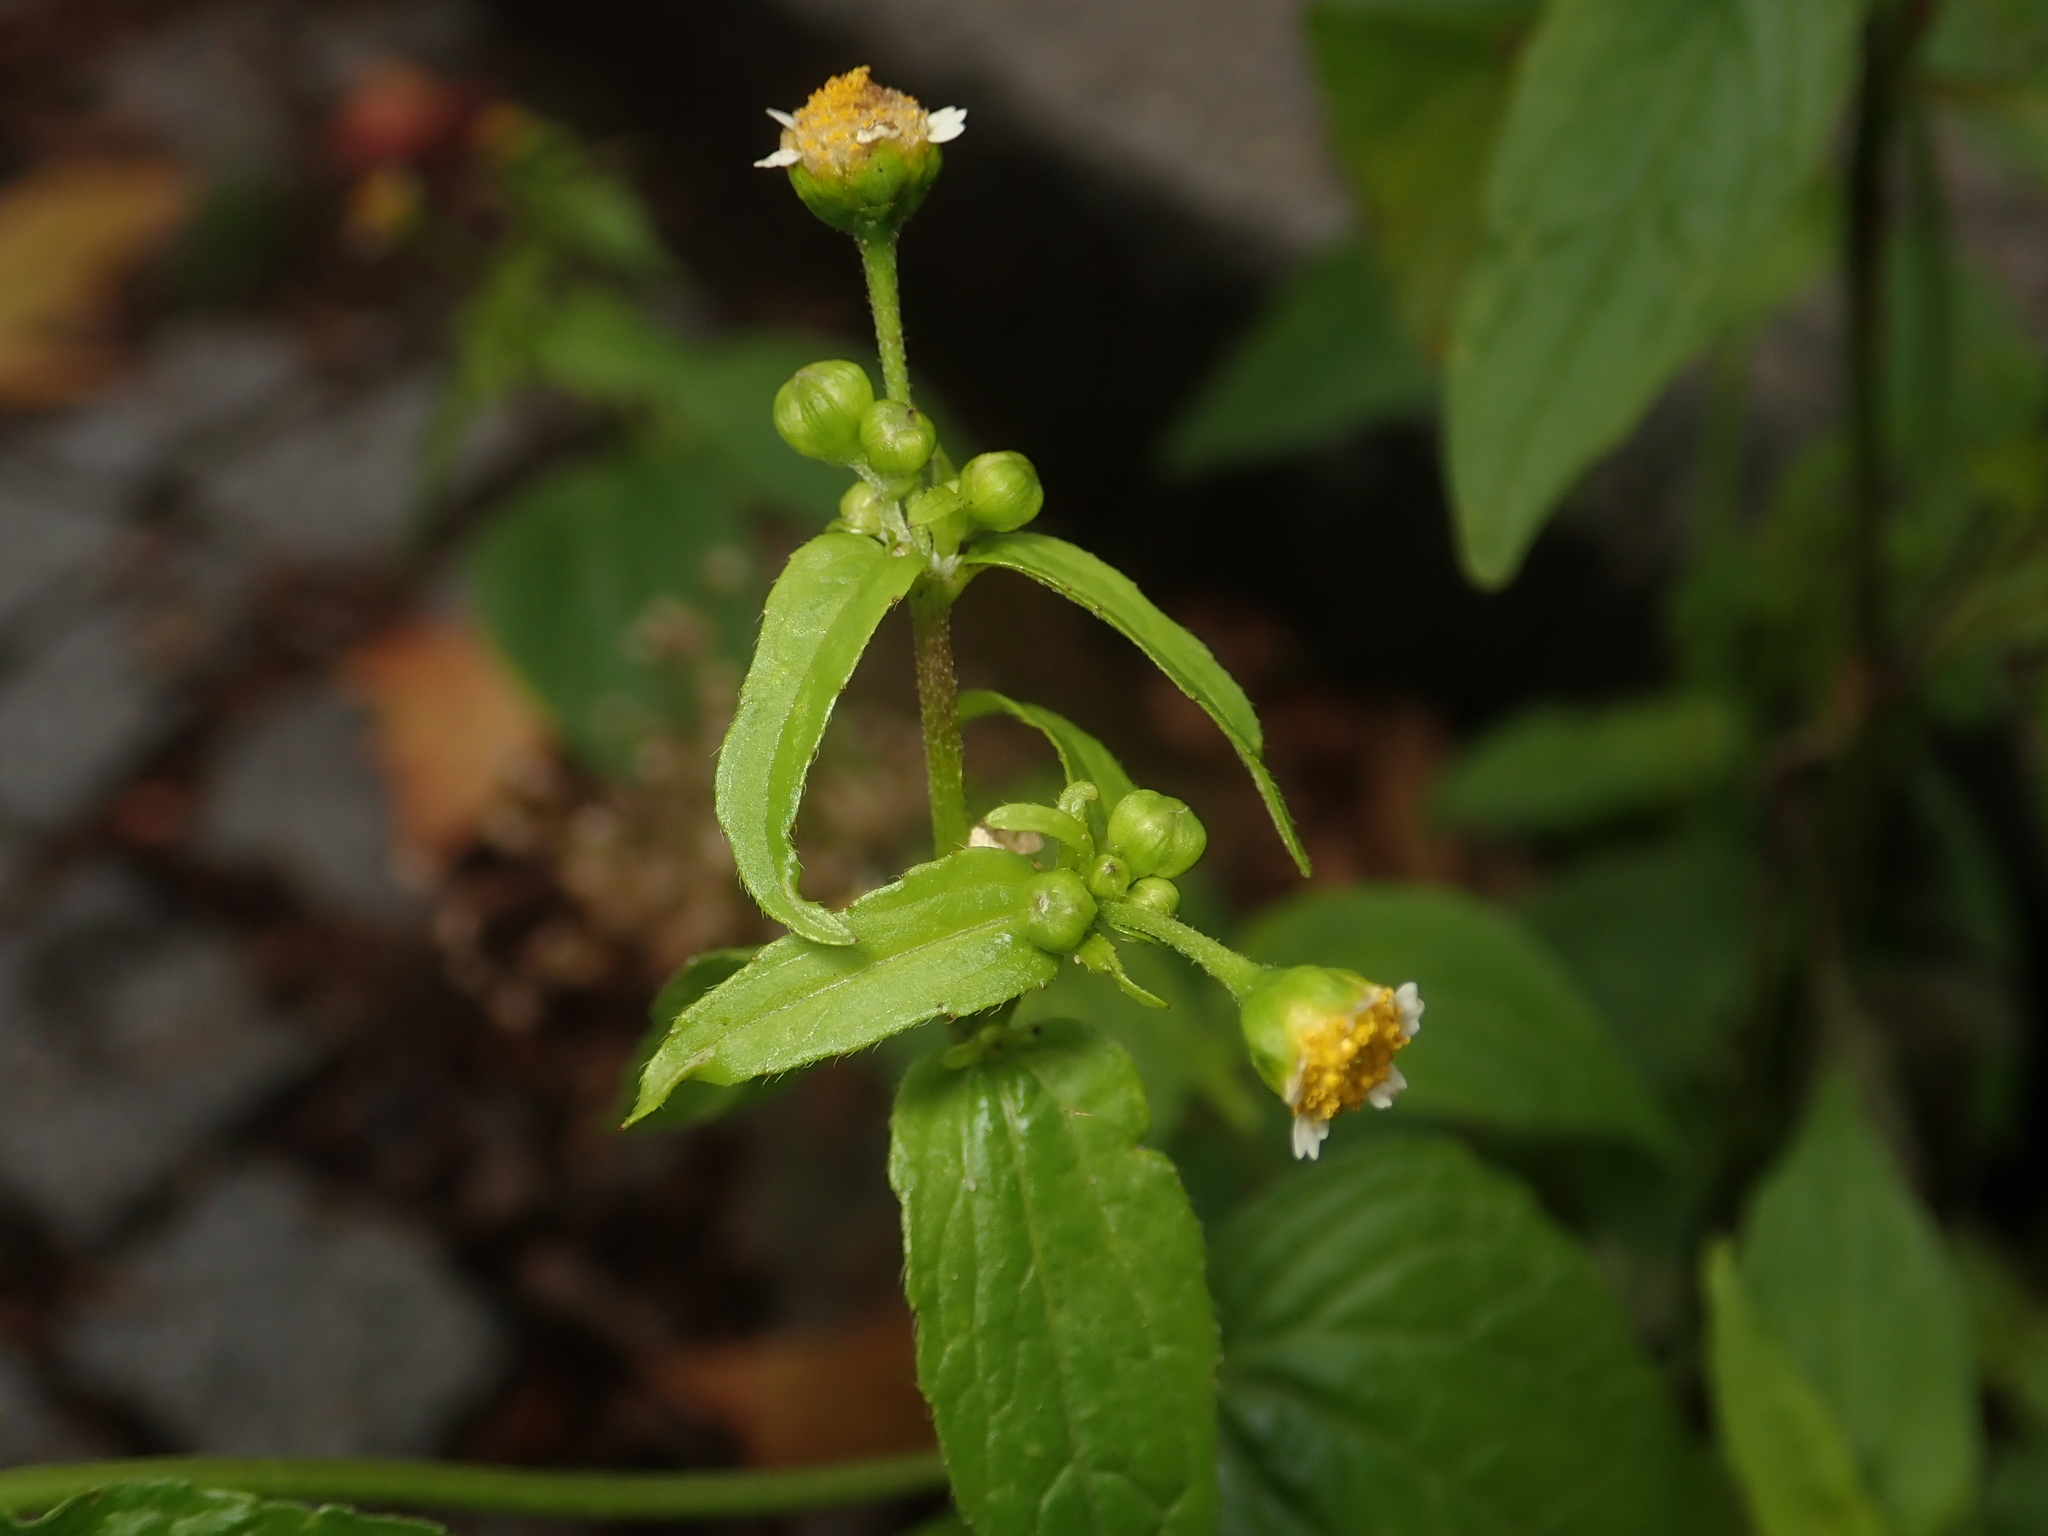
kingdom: Plantae
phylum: Tracheophyta
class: Magnoliopsida
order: Asterales
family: Asteraceae
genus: Galinsoga
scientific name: Galinsoga parviflora
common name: Gallant soldier
